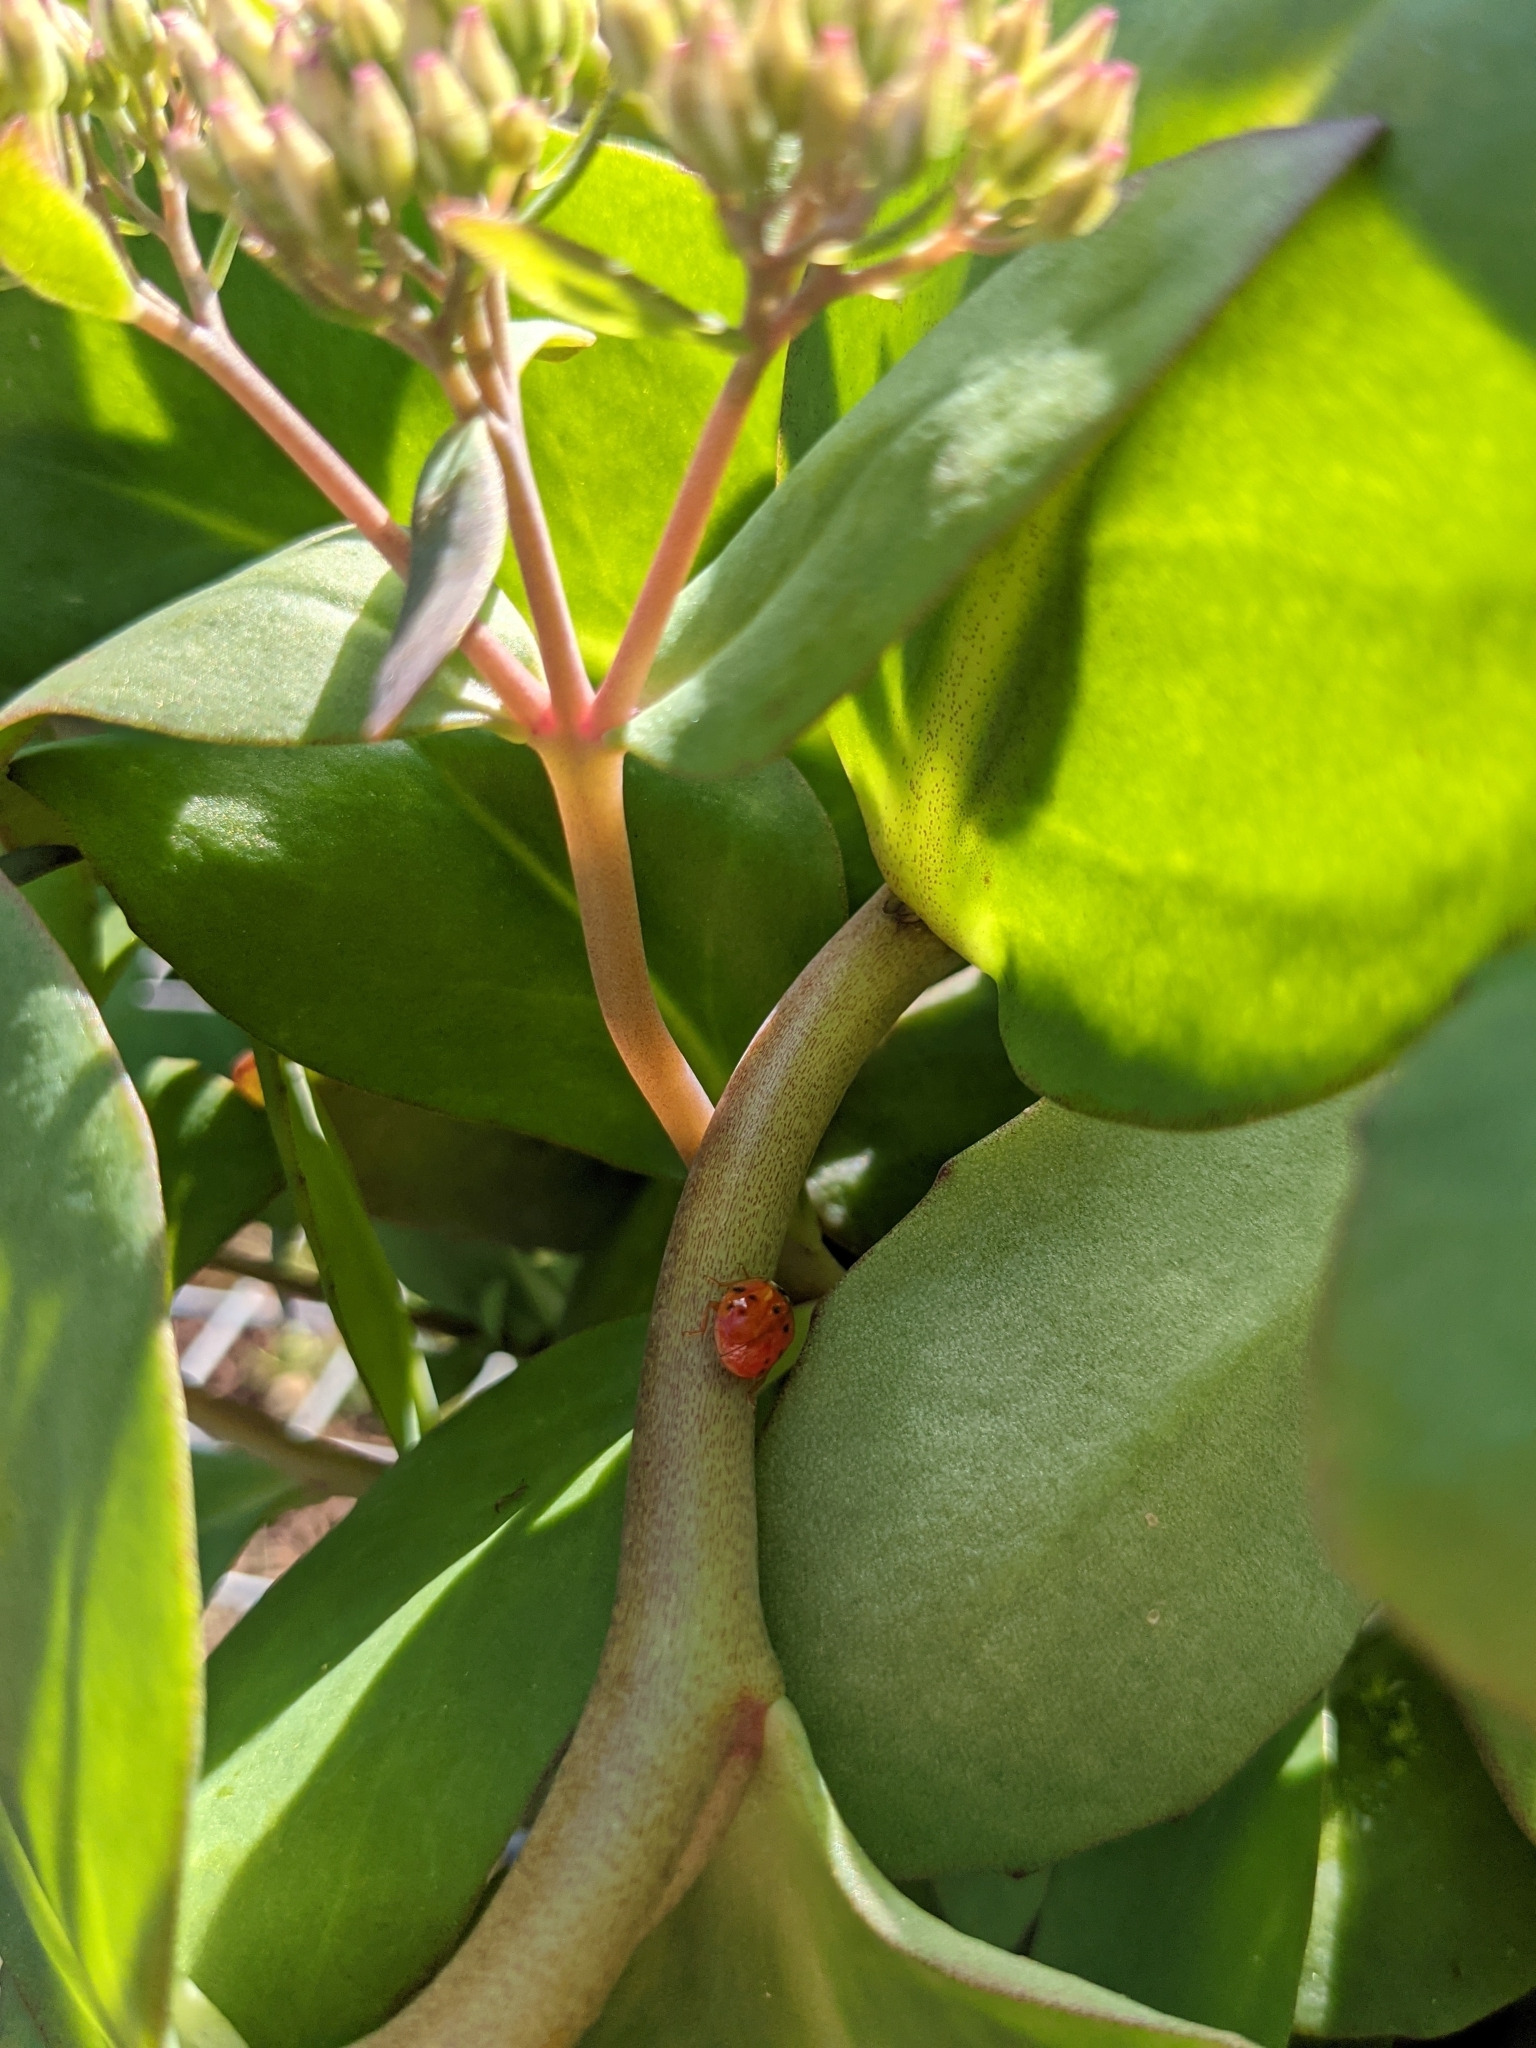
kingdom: Animalia
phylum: Arthropoda
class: Insecta
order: Coleoptera
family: Coccinellidae
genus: Harmonia
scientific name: Harmonia axyridis
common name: Harlequin ladybird
